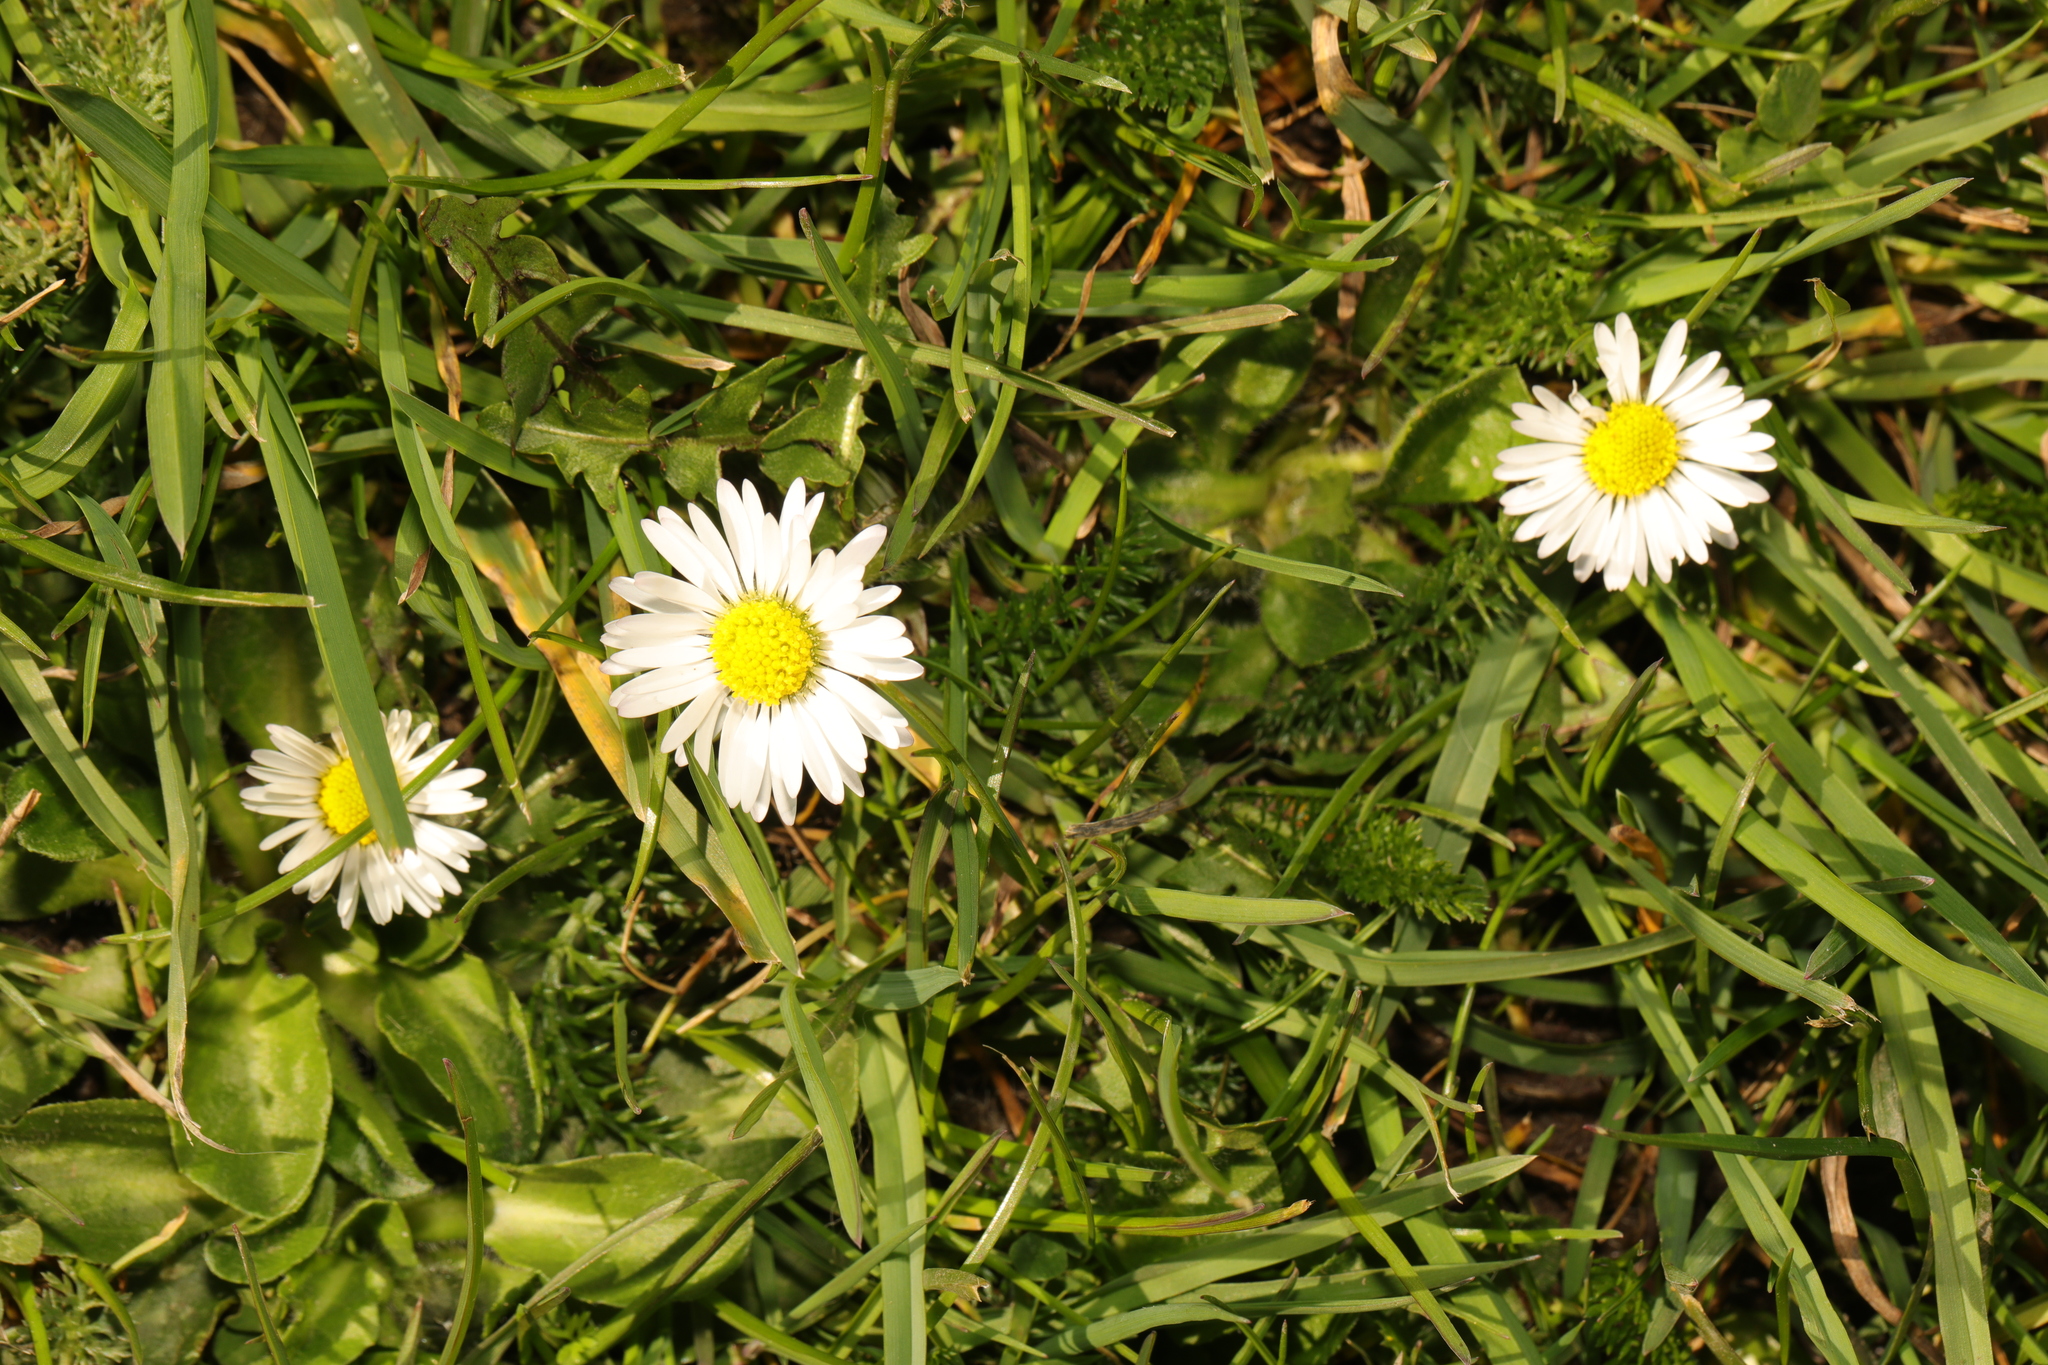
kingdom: Plantae
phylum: Tracheophyta
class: Magnoliopsida
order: Asterales
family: Asteraceae
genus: Bellis
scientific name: Bellis perennis
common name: Lawndaisy
